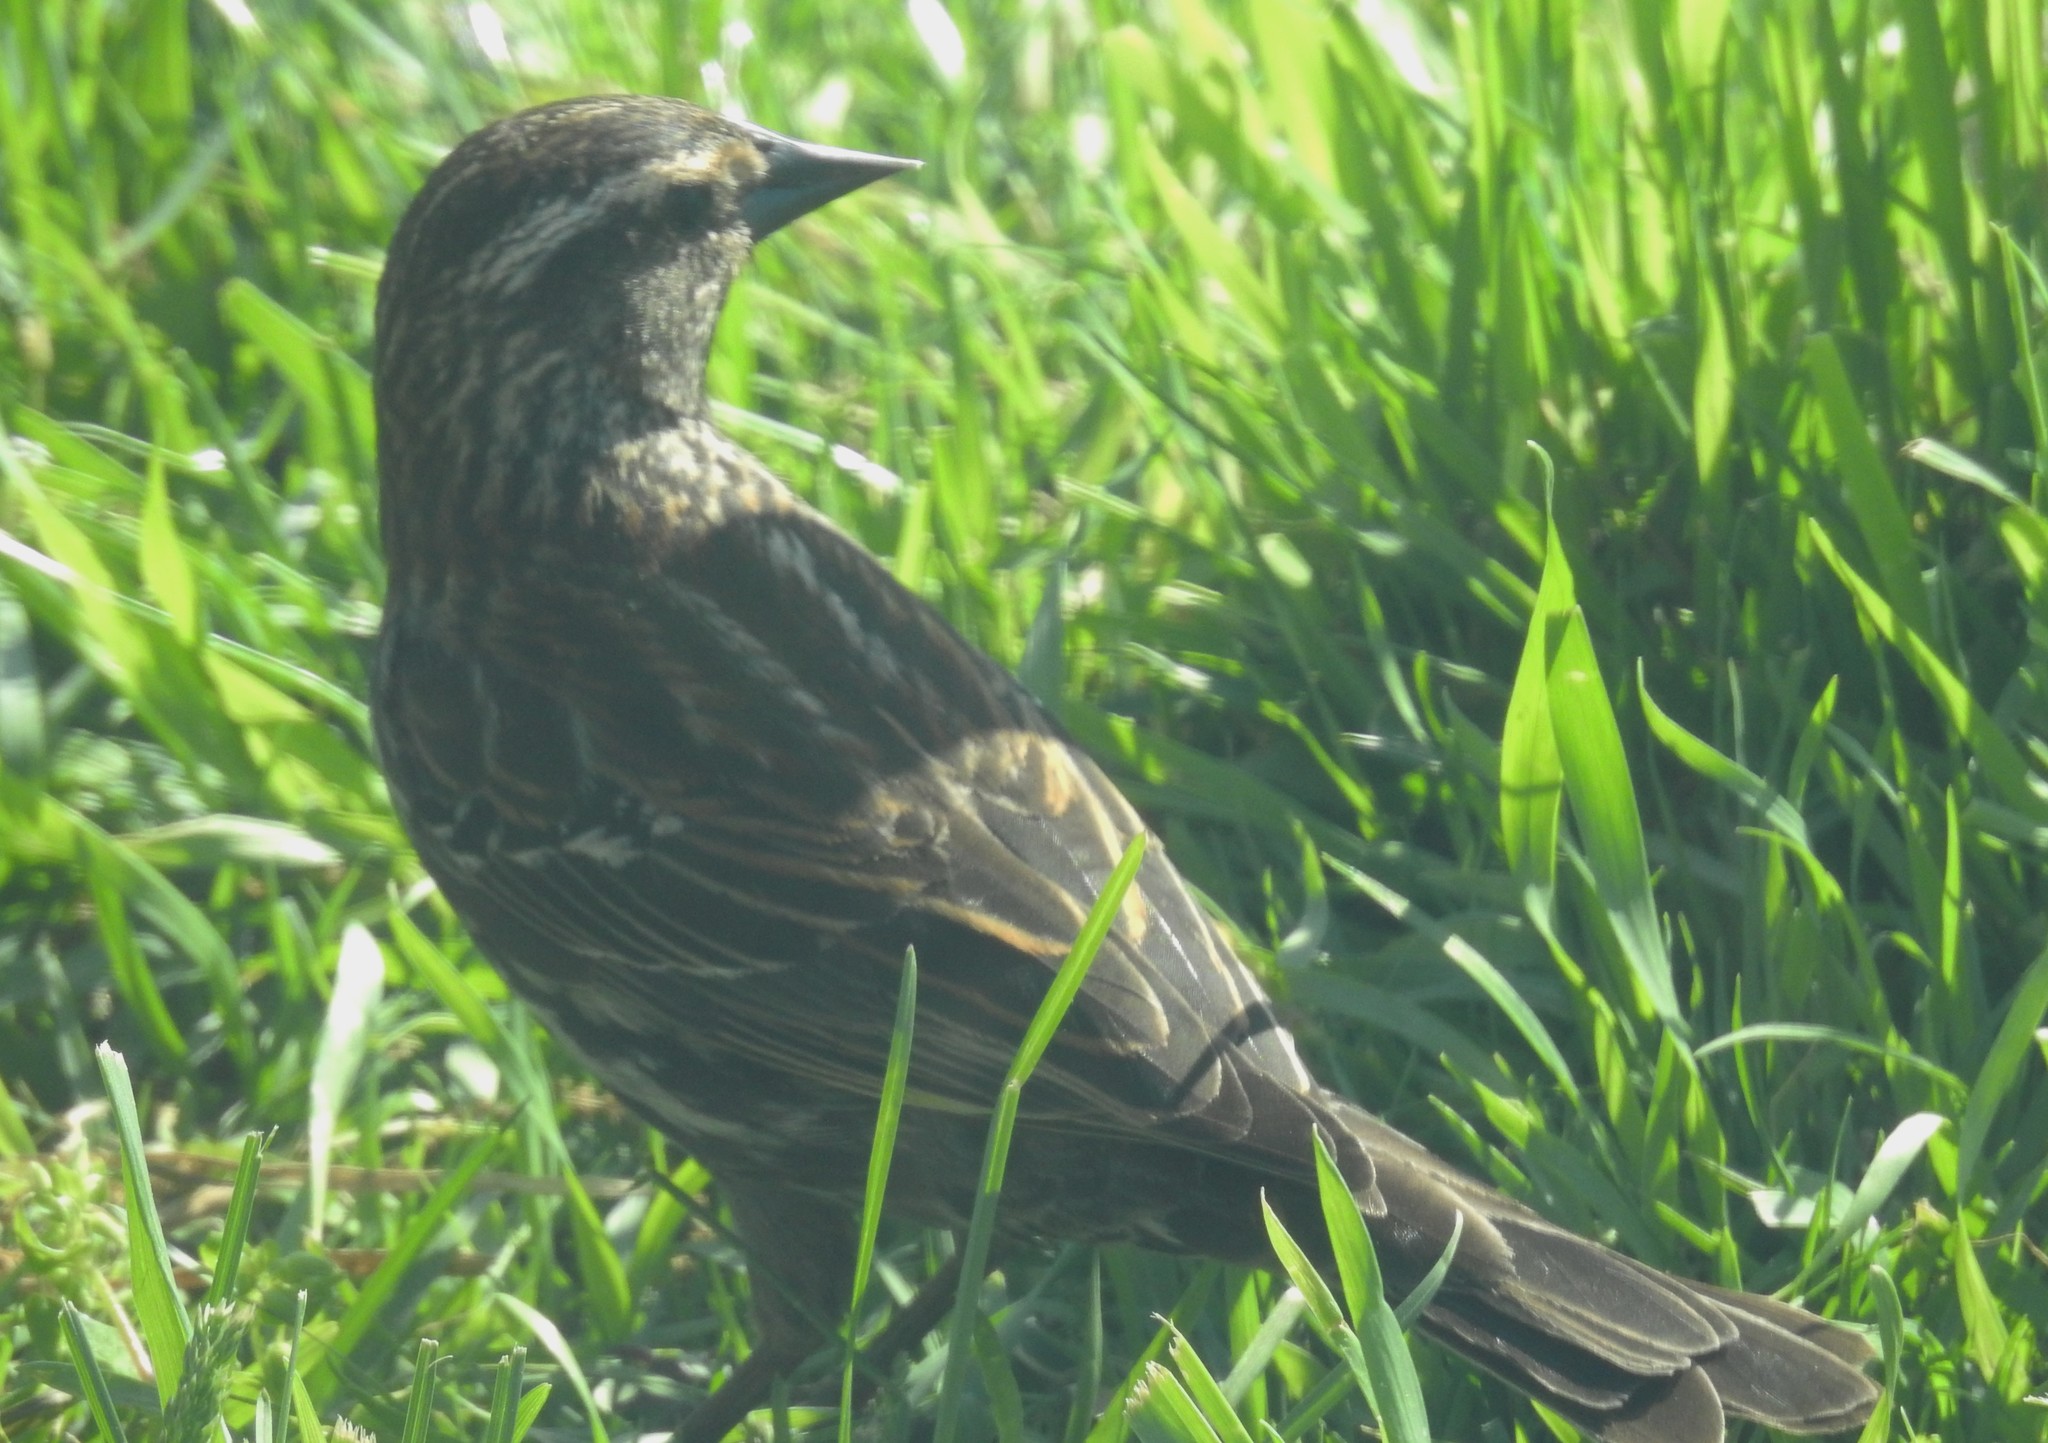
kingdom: Animalia
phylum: Chordata
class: Aves
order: Passeriformes
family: Icteridae
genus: Agelaius
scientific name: Agelaius phoeniceus
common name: Red-winged blackbird
